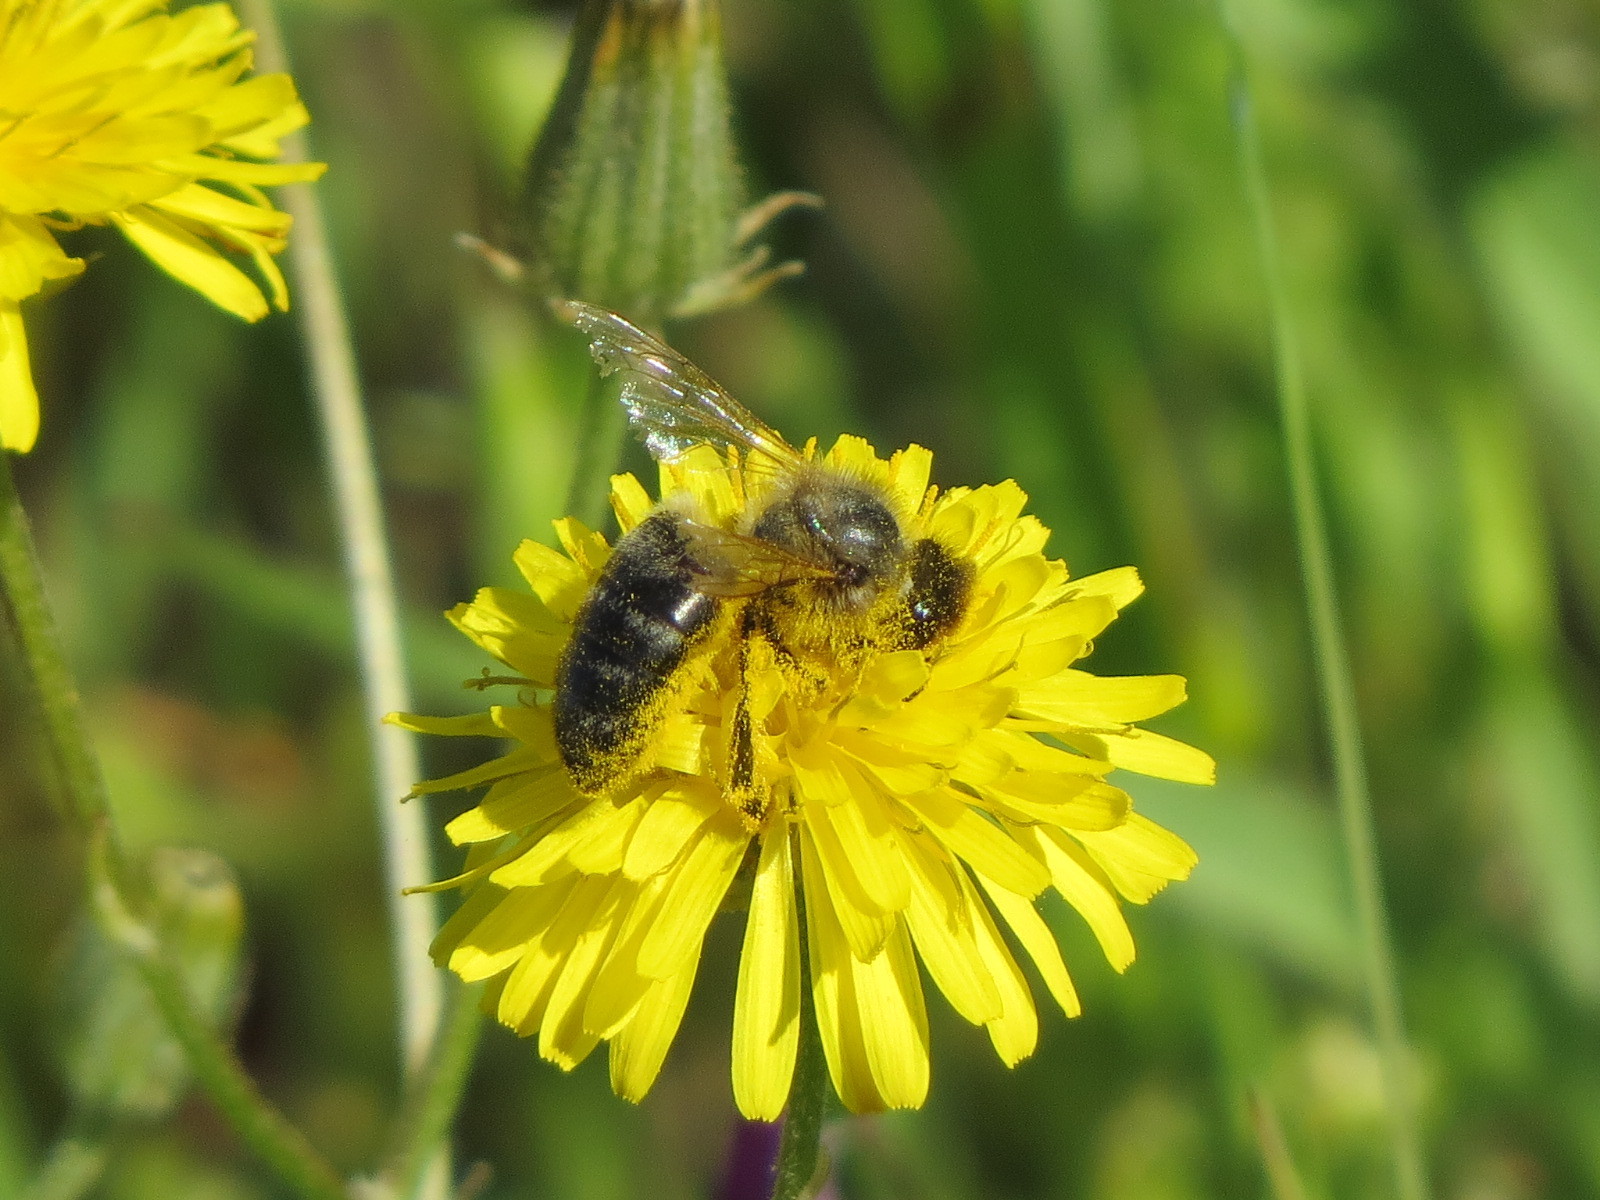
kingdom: Animalia
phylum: Arthropoda
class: Insecta
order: Hymenoptera
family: Apidae
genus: Apis
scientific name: Apis mellifera
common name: Honey bee
